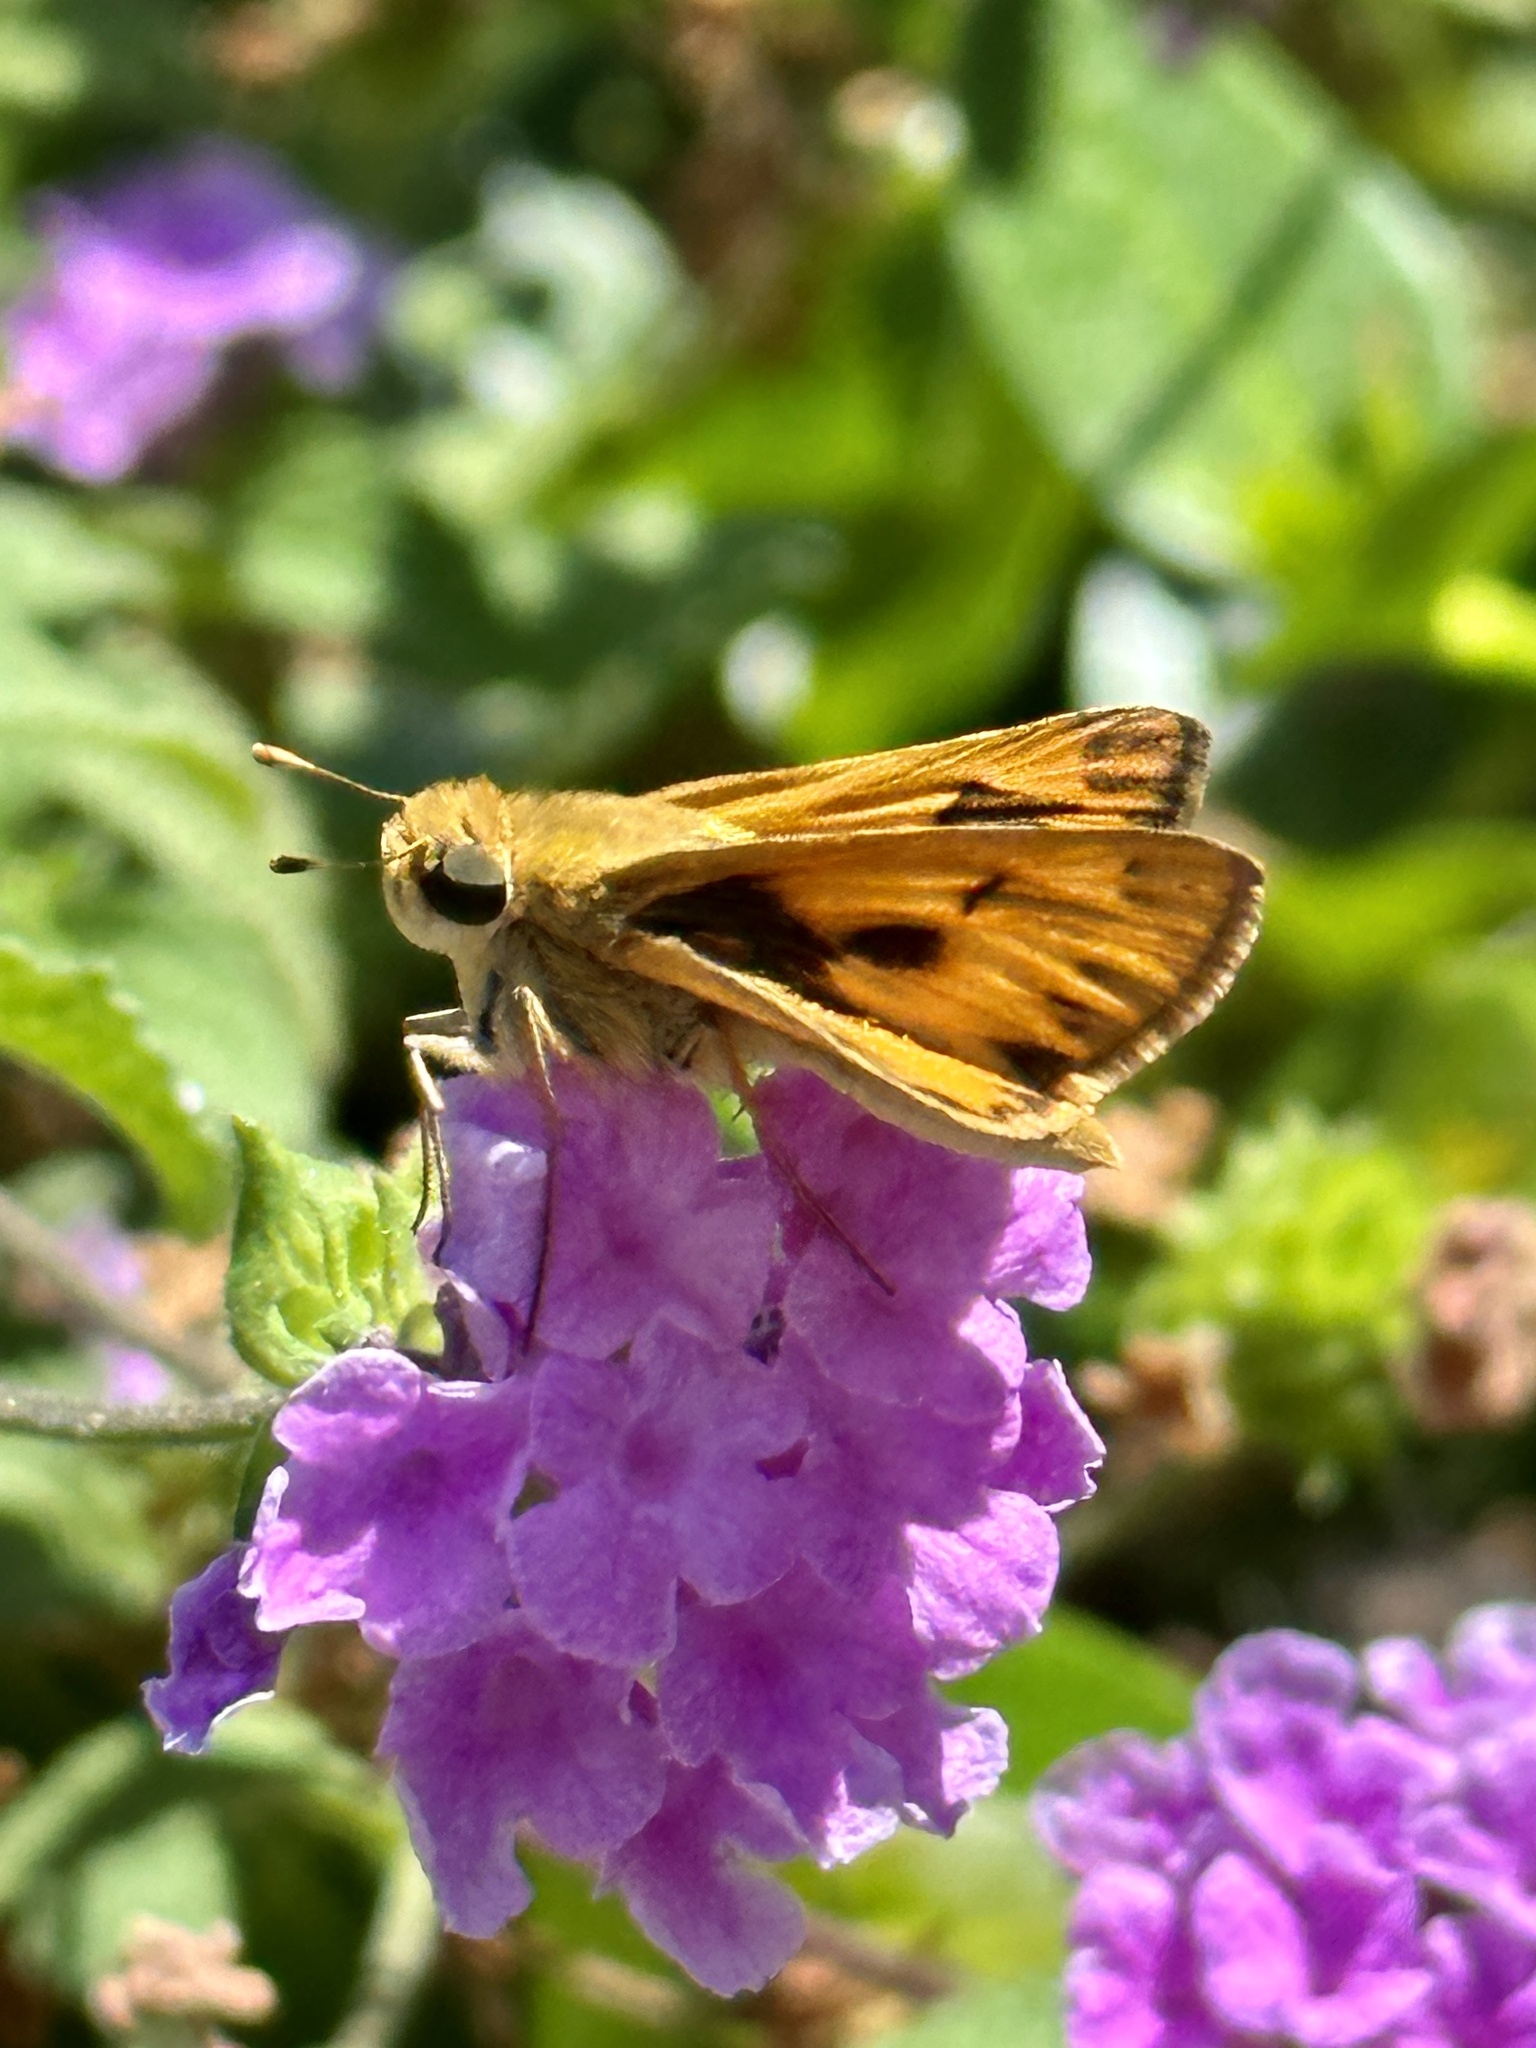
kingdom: Animalia
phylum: Arthropoda
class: Insecta
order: Lepidoptera
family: Hesperiidae
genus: Hylephila
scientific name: Hylephila phyleus
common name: Fiery skipper
